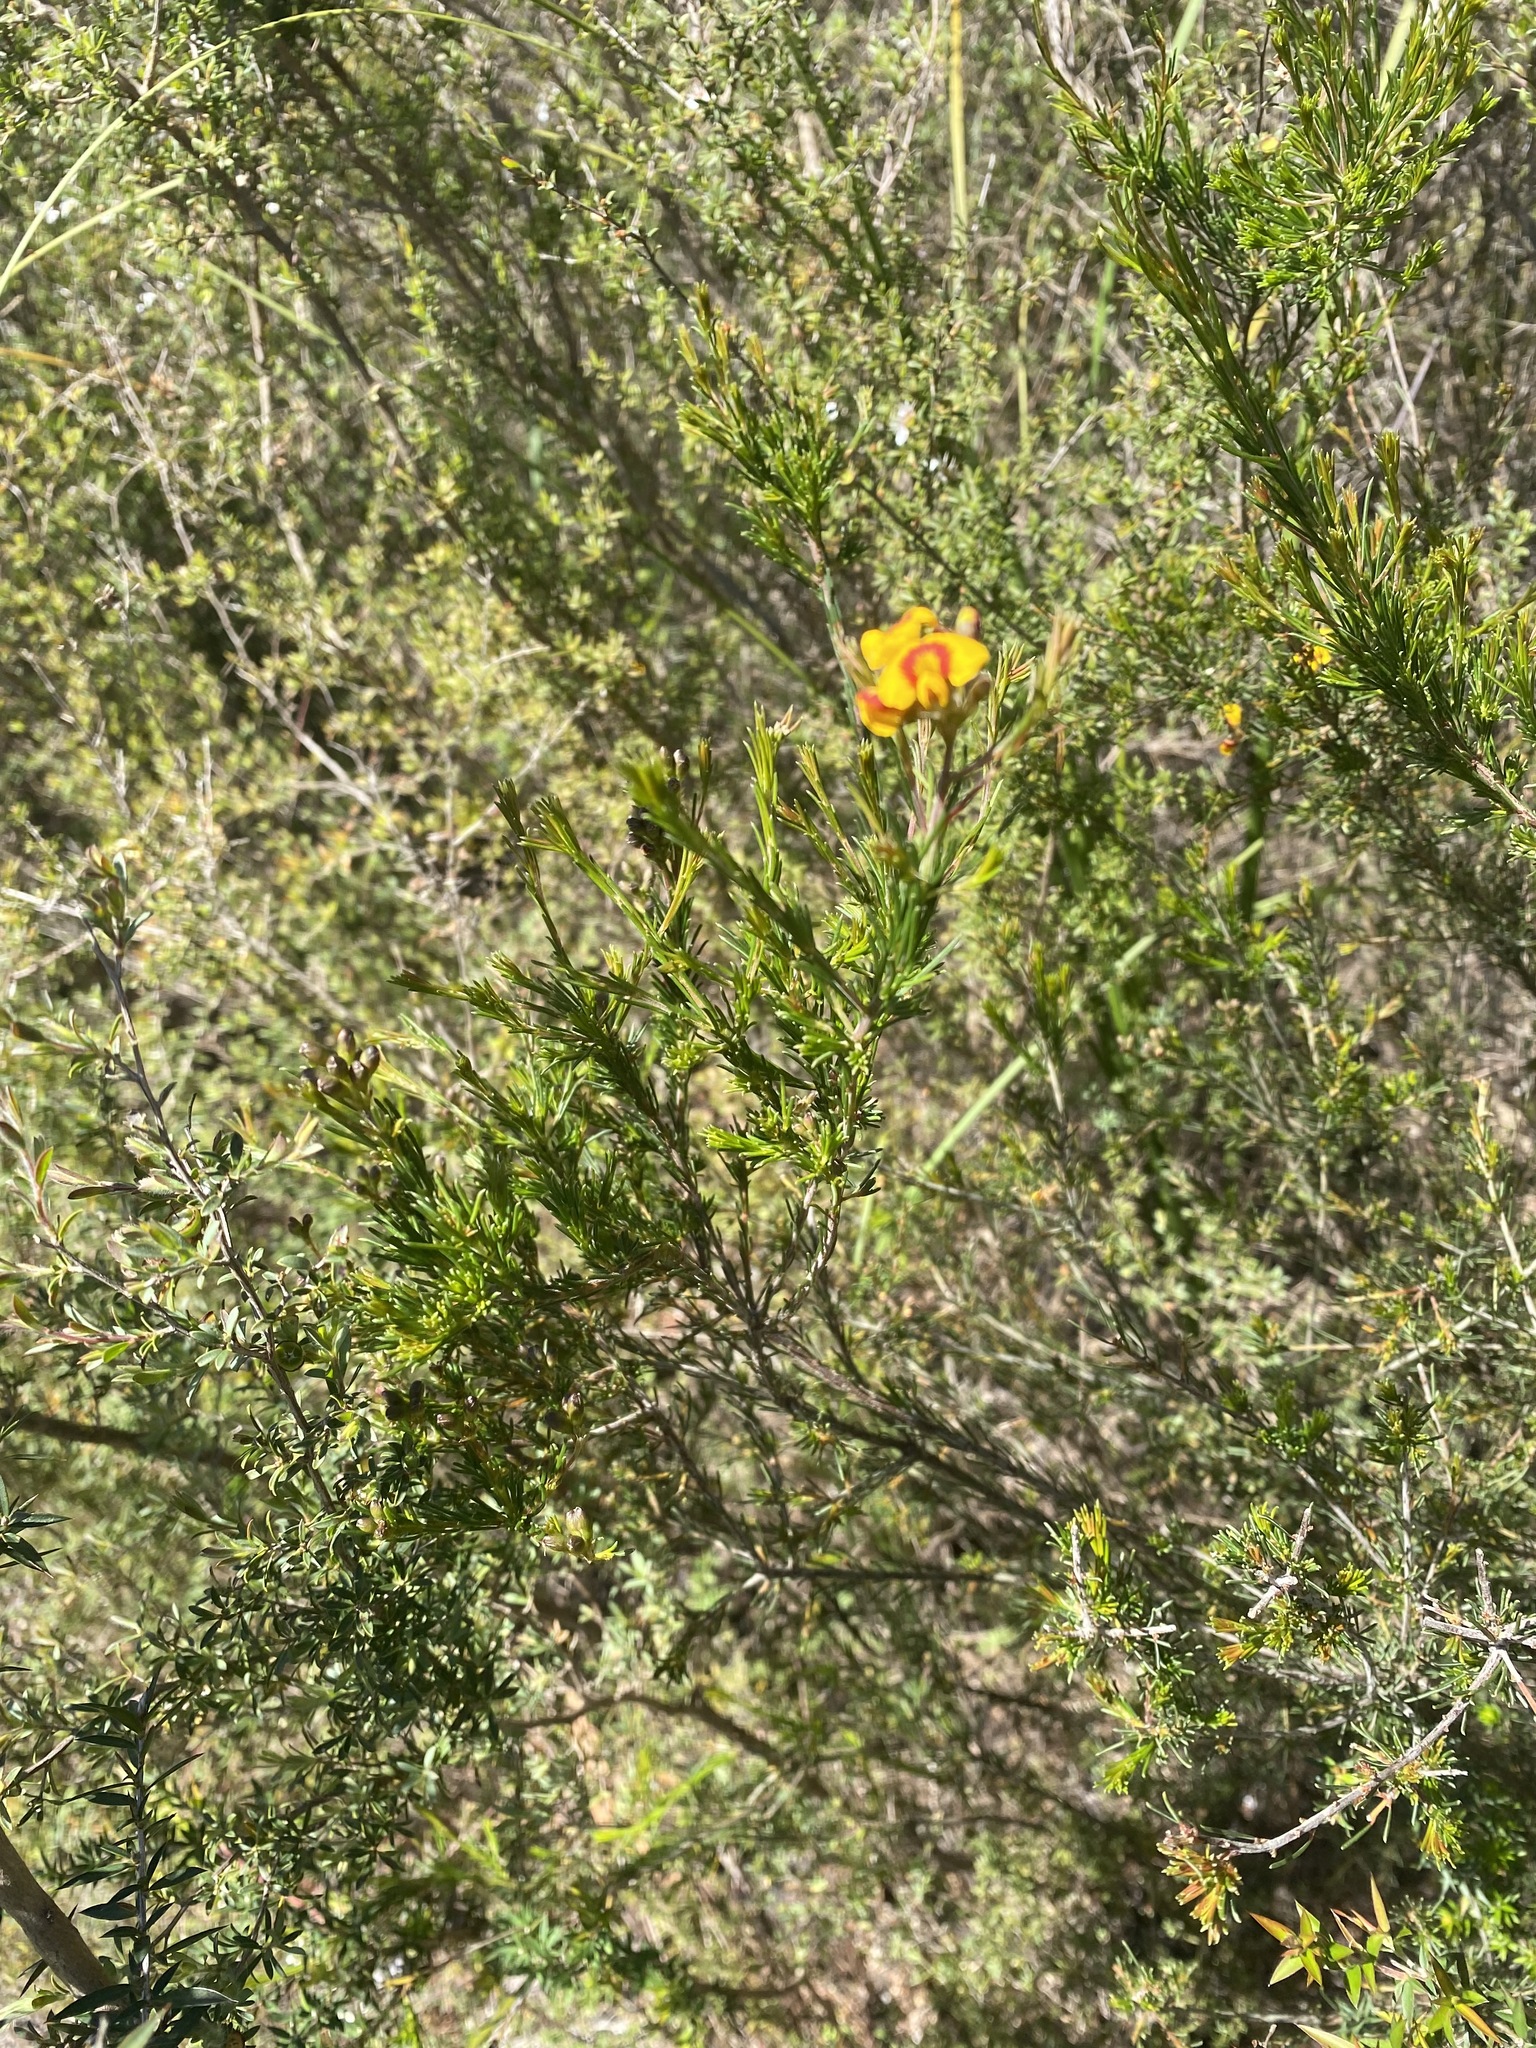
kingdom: Plantae
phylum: Tracheophyta
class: Magnoliopsida
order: Fabales
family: Fabaceae
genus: Dillwynia
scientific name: Dillwynia glaberrima
